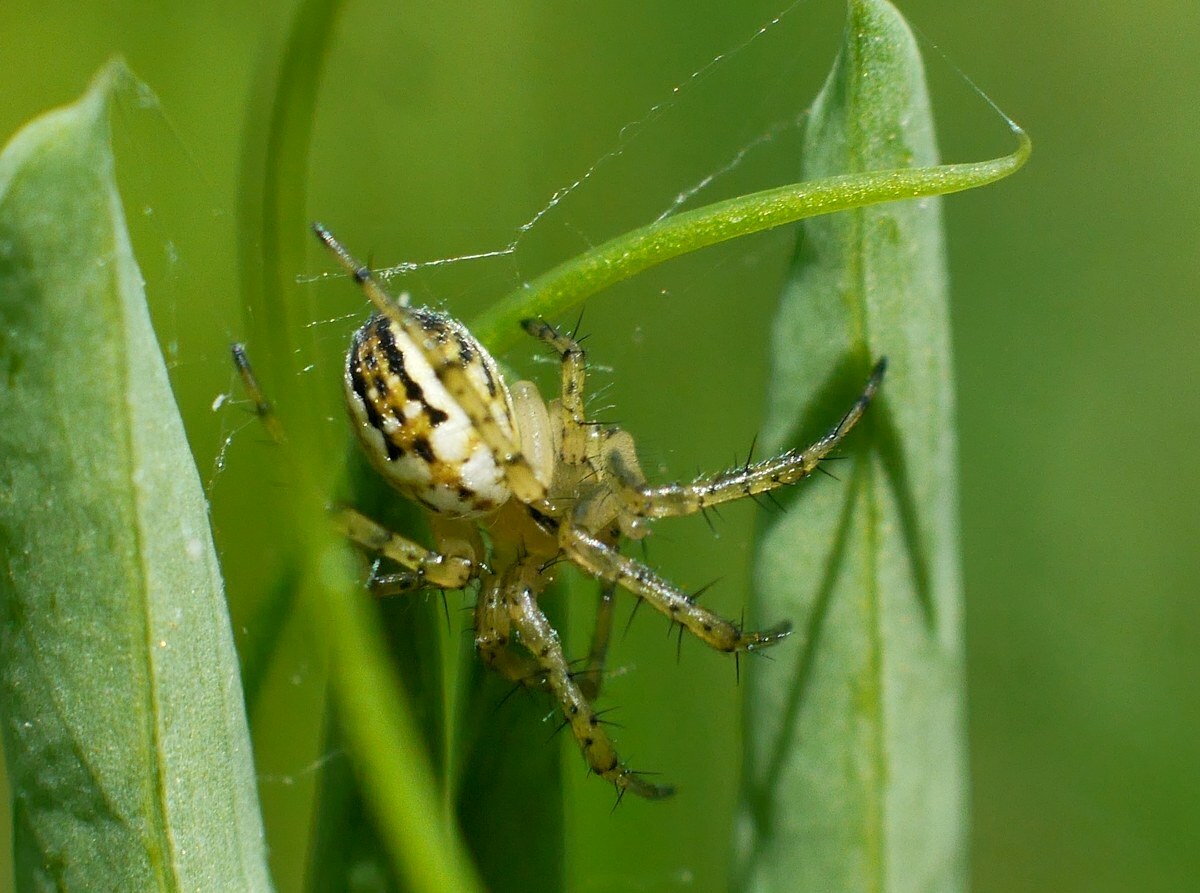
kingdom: Animalia
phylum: Arthropoda
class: Arachnida
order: Araneae
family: Araneidae
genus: Mangora
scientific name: Mangora acalypha
